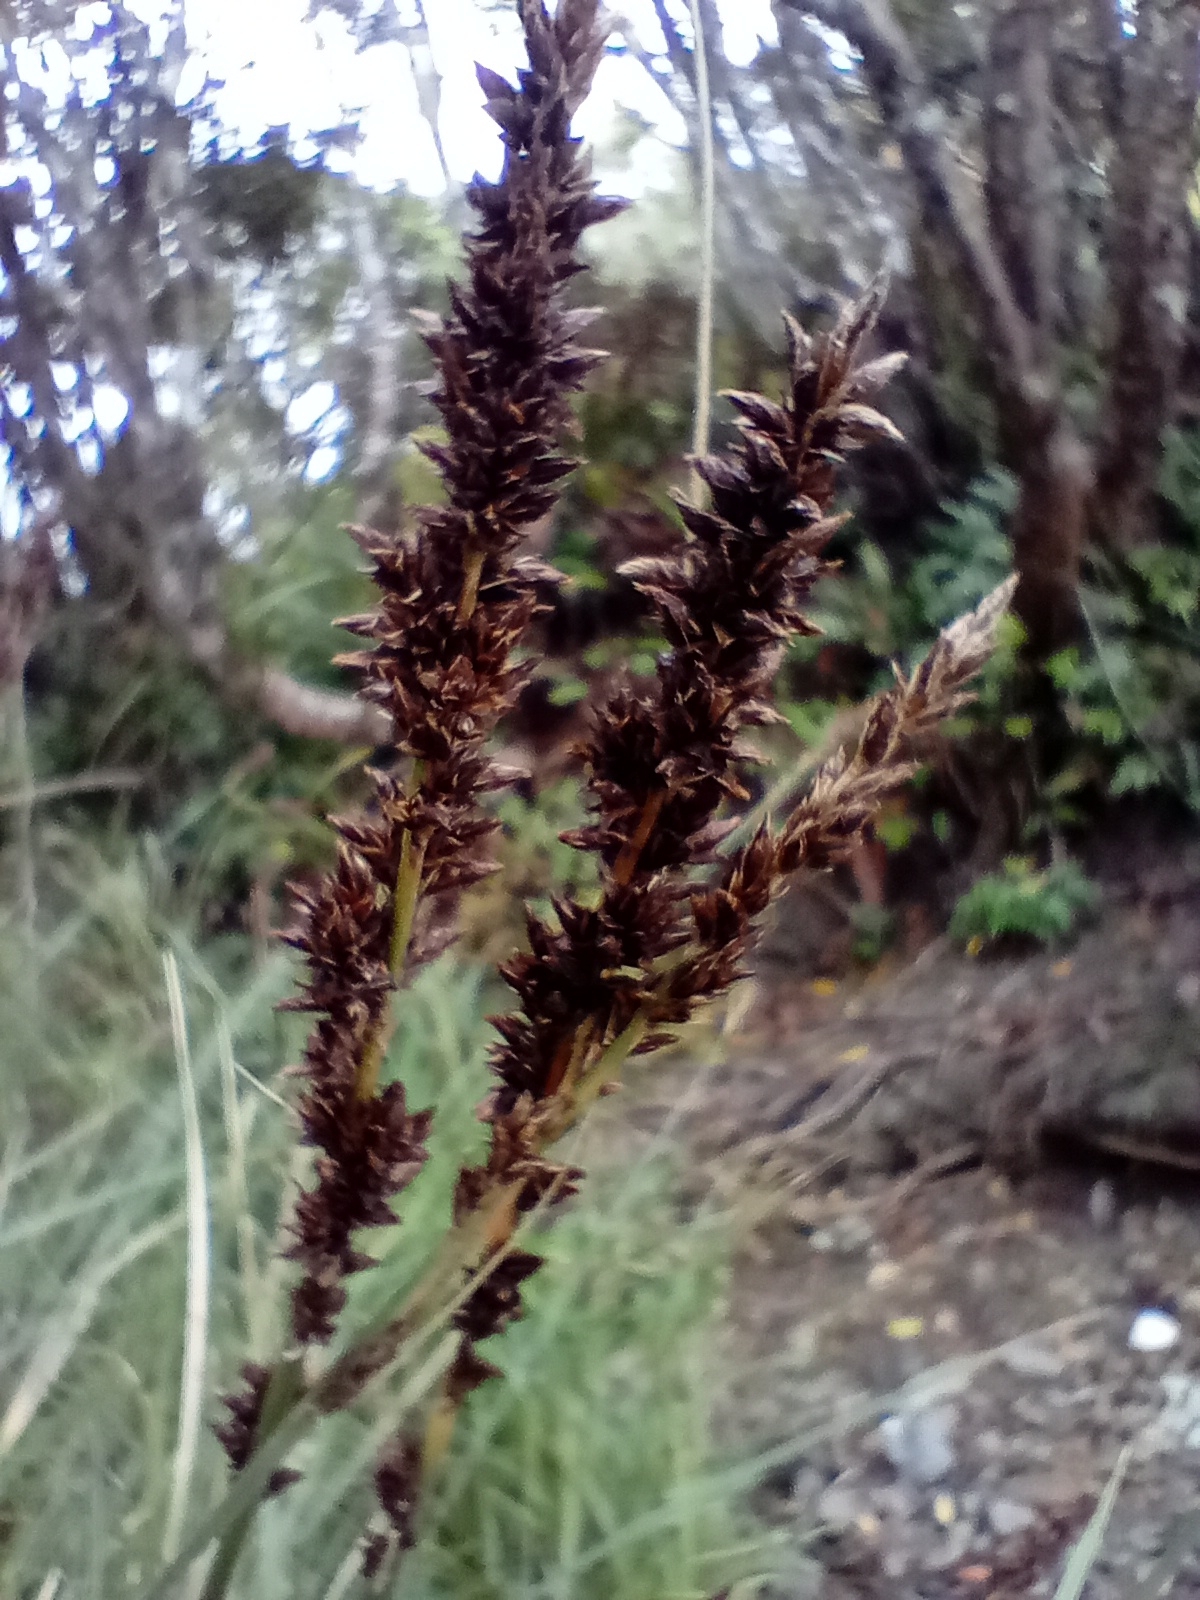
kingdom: Plantae
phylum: Tracheophyta
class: Liliopsida
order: Poales
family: Cyperaceae
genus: Carex
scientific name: Carex appressa
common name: Tussock sedge
